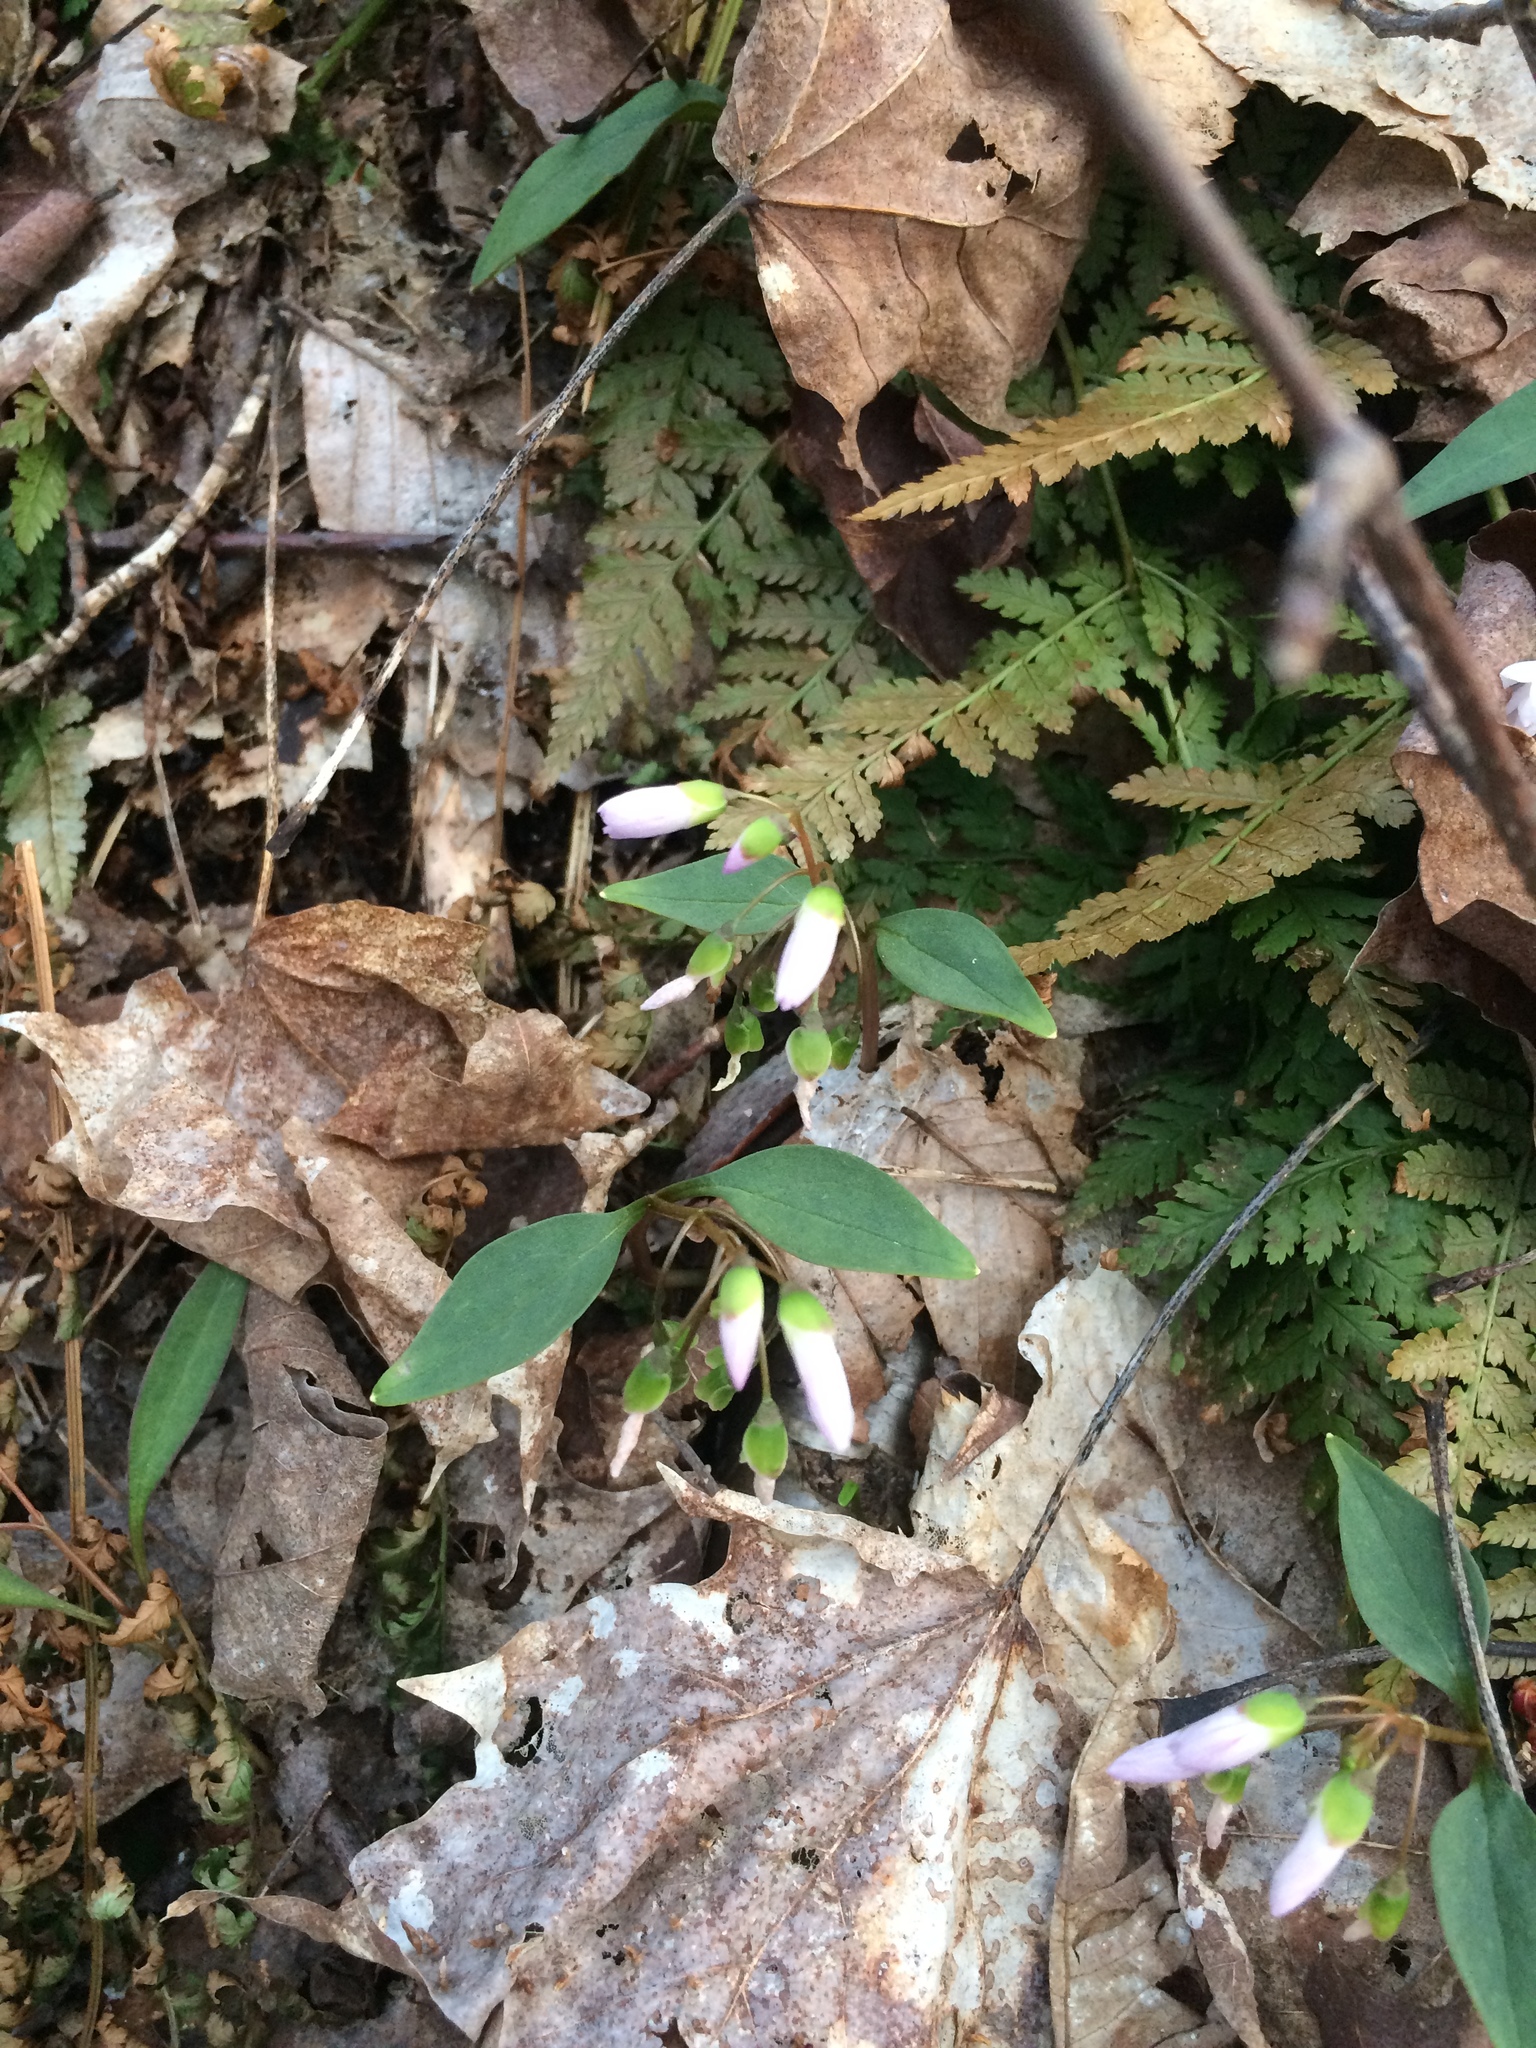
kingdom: Plantae
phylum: Tracheophyta
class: Magnoliopsida
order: Caryophyllales
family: Montiaceae
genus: Claytonia
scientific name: Claytonia caroliniana
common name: Carolina spring beauty
